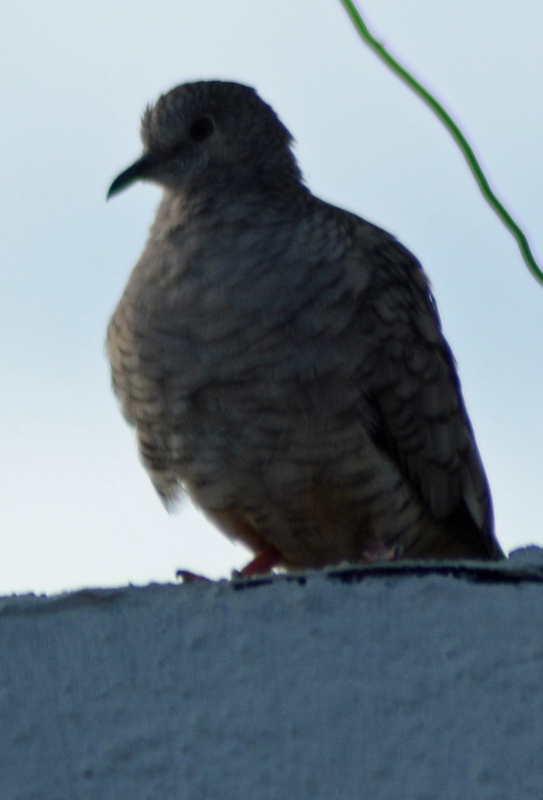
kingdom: Animalia
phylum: Chordata
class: Aves
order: Columbiformes
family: Columbidae
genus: Columbina
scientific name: Columbina inca
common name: Inca dove
